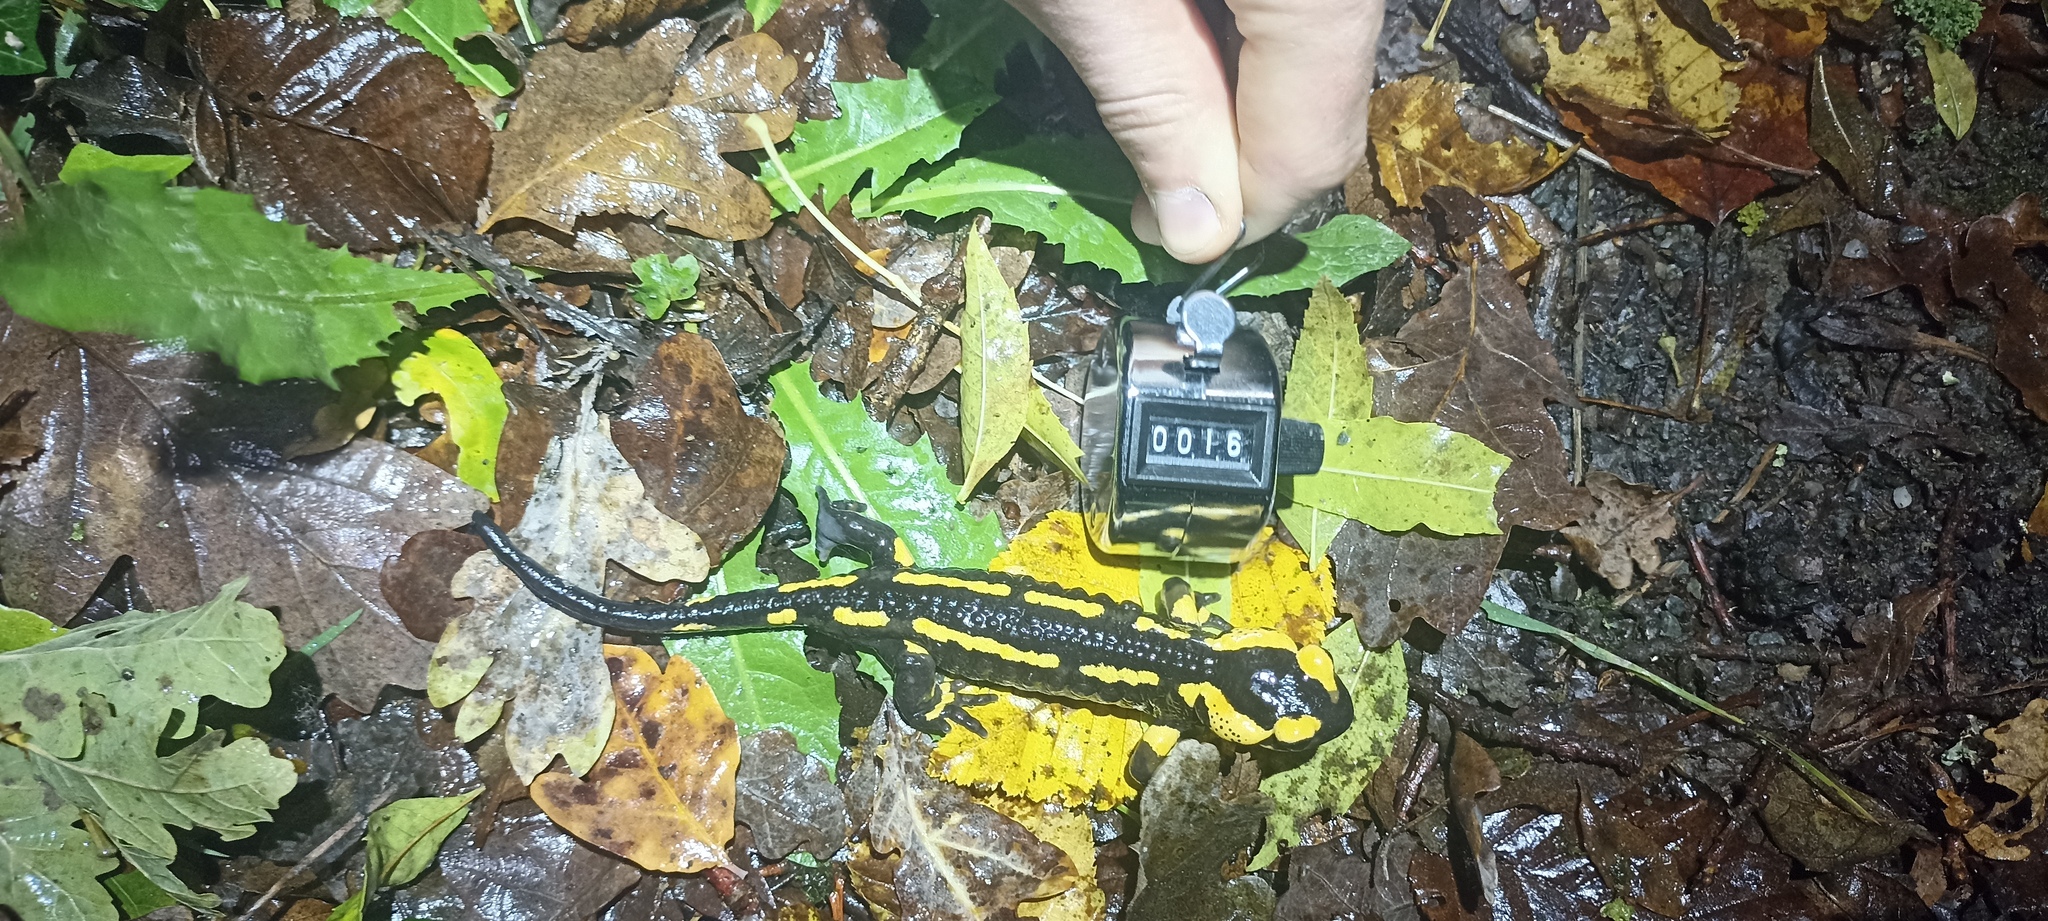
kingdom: Animalia
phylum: Chordata
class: Amphibia
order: Caudata
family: Salamandridae
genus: Salamandra
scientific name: Salamandra salamandra
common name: Fire salamander
